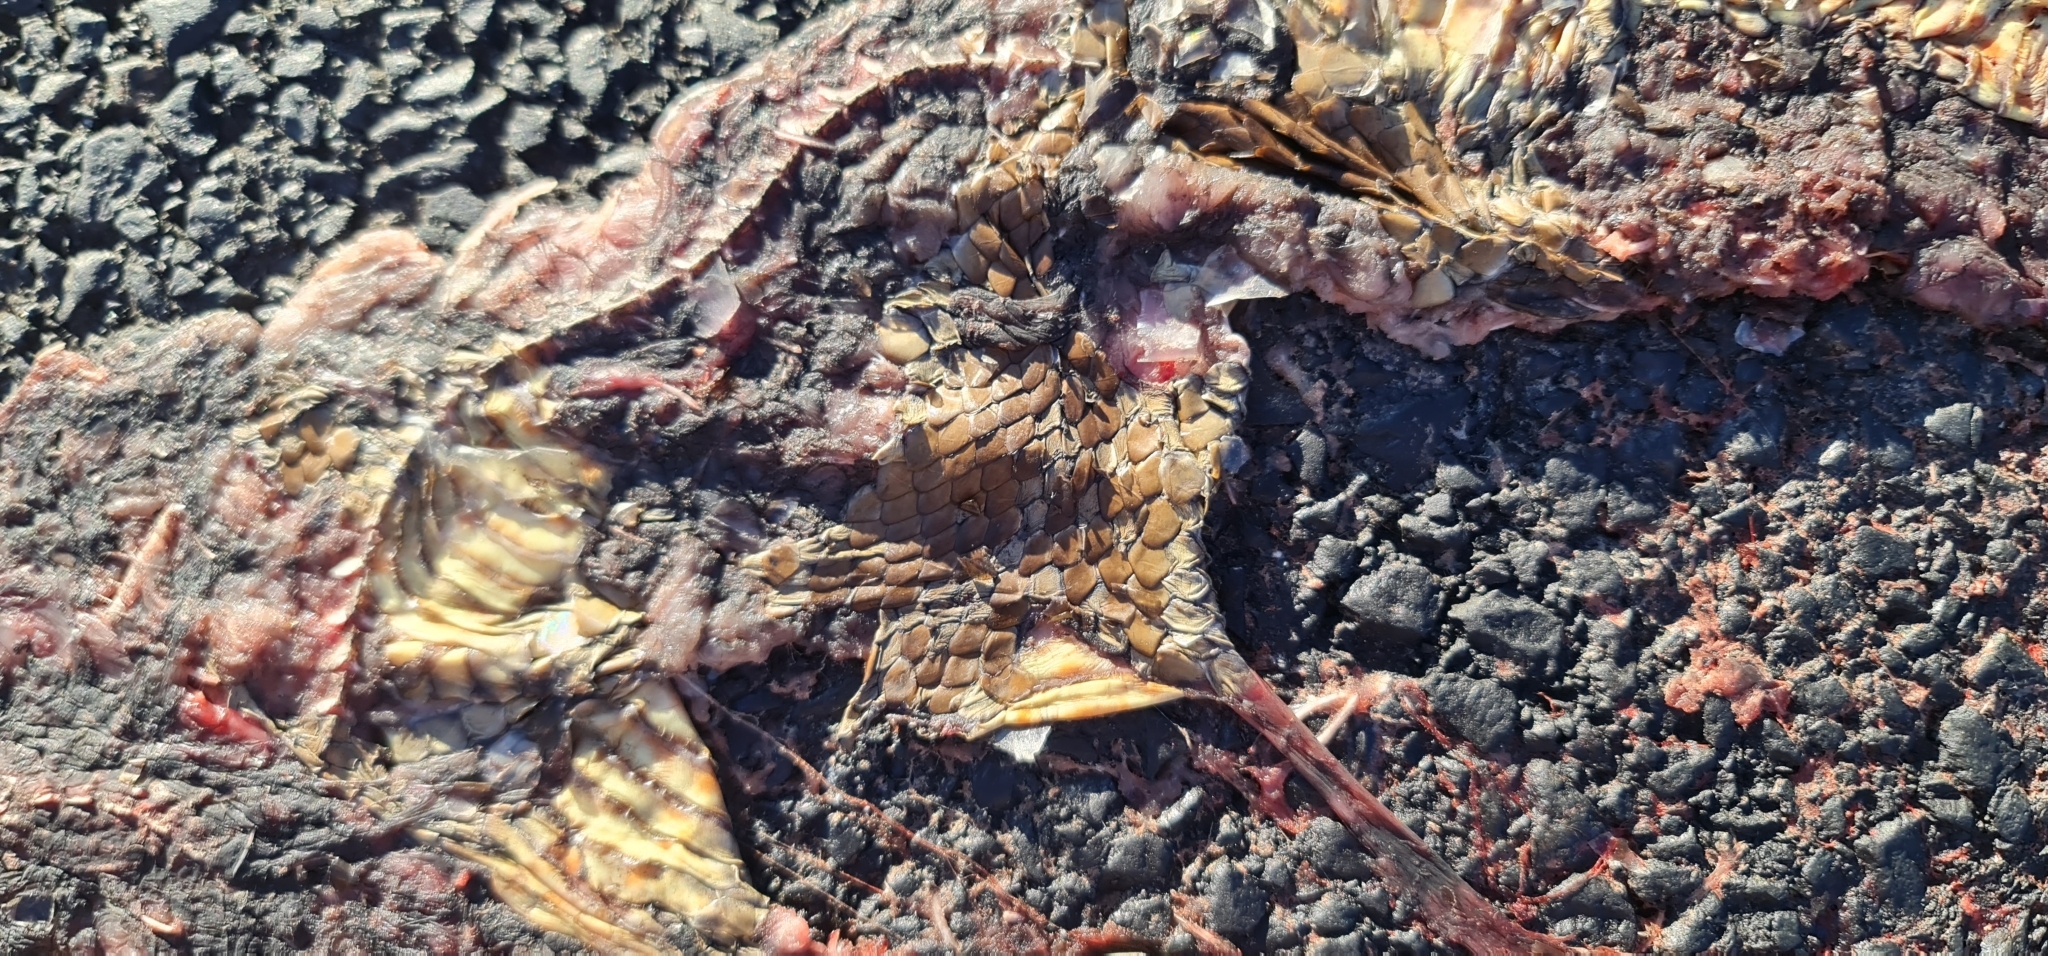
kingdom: Animalia
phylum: Chordata
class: Squamata
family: Elapidae
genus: Pseudonaja
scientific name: Pseudonaja textilis
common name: Eastern brown snake
